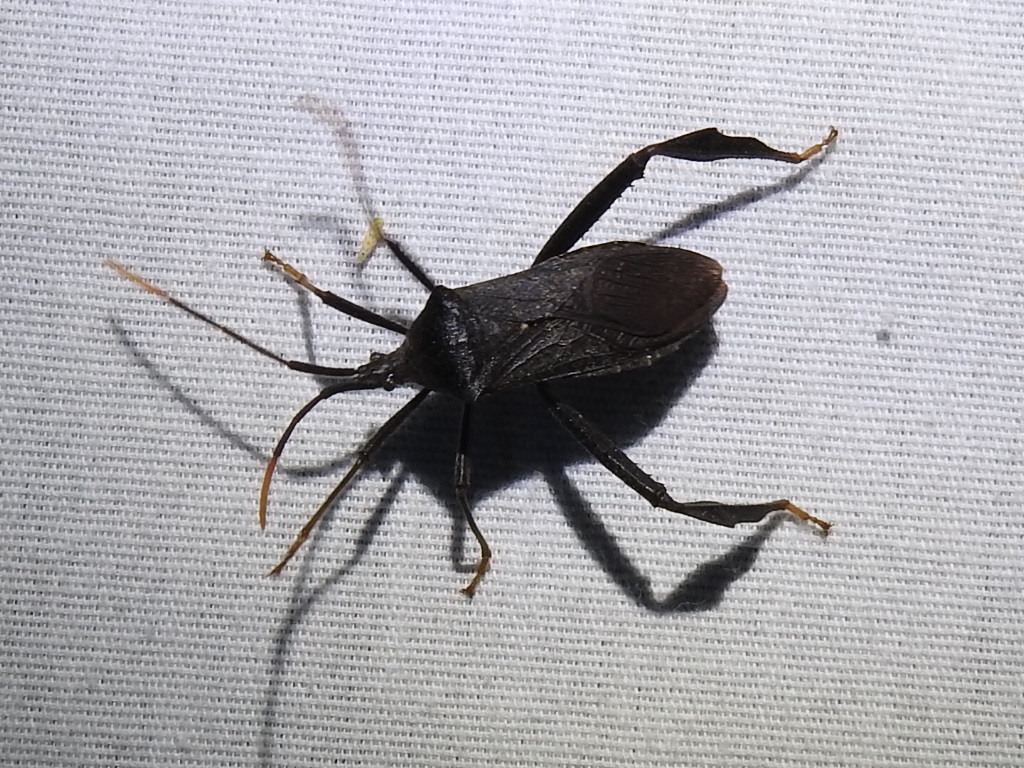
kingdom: Animalia
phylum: Arthropoda
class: Insecta
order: Hemiptera
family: Coreidae
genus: Acanthocephala
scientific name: Acanthocephala terminalis
